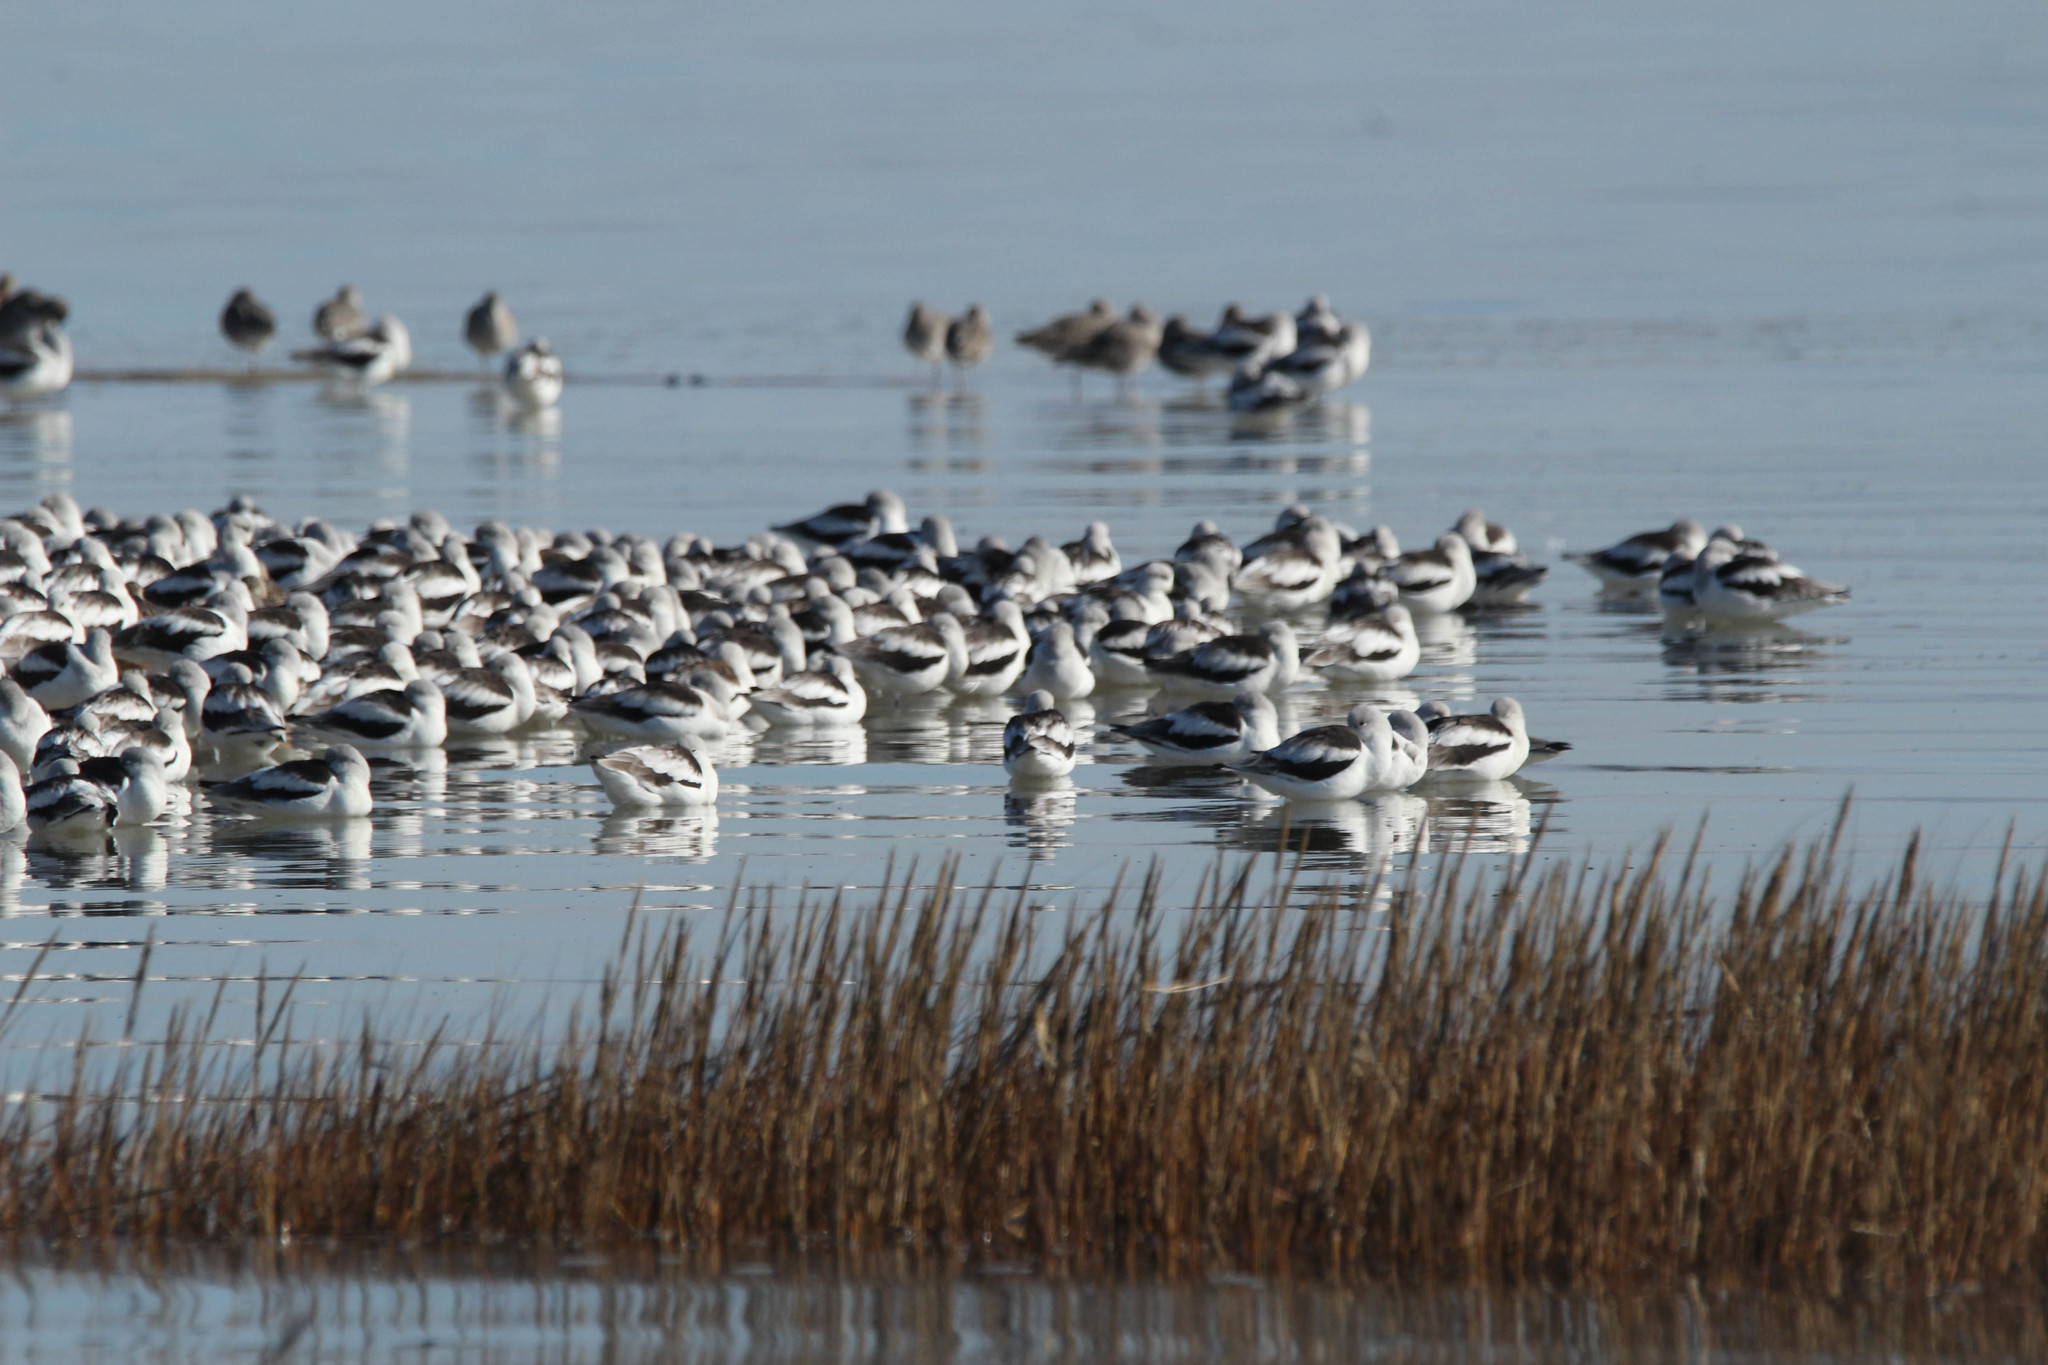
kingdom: Animalia
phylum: Chordata
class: Aves
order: Charadriiformes
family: Recurvirostridae
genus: Recurvirostra
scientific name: Recurvirostra americana
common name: American avocet
